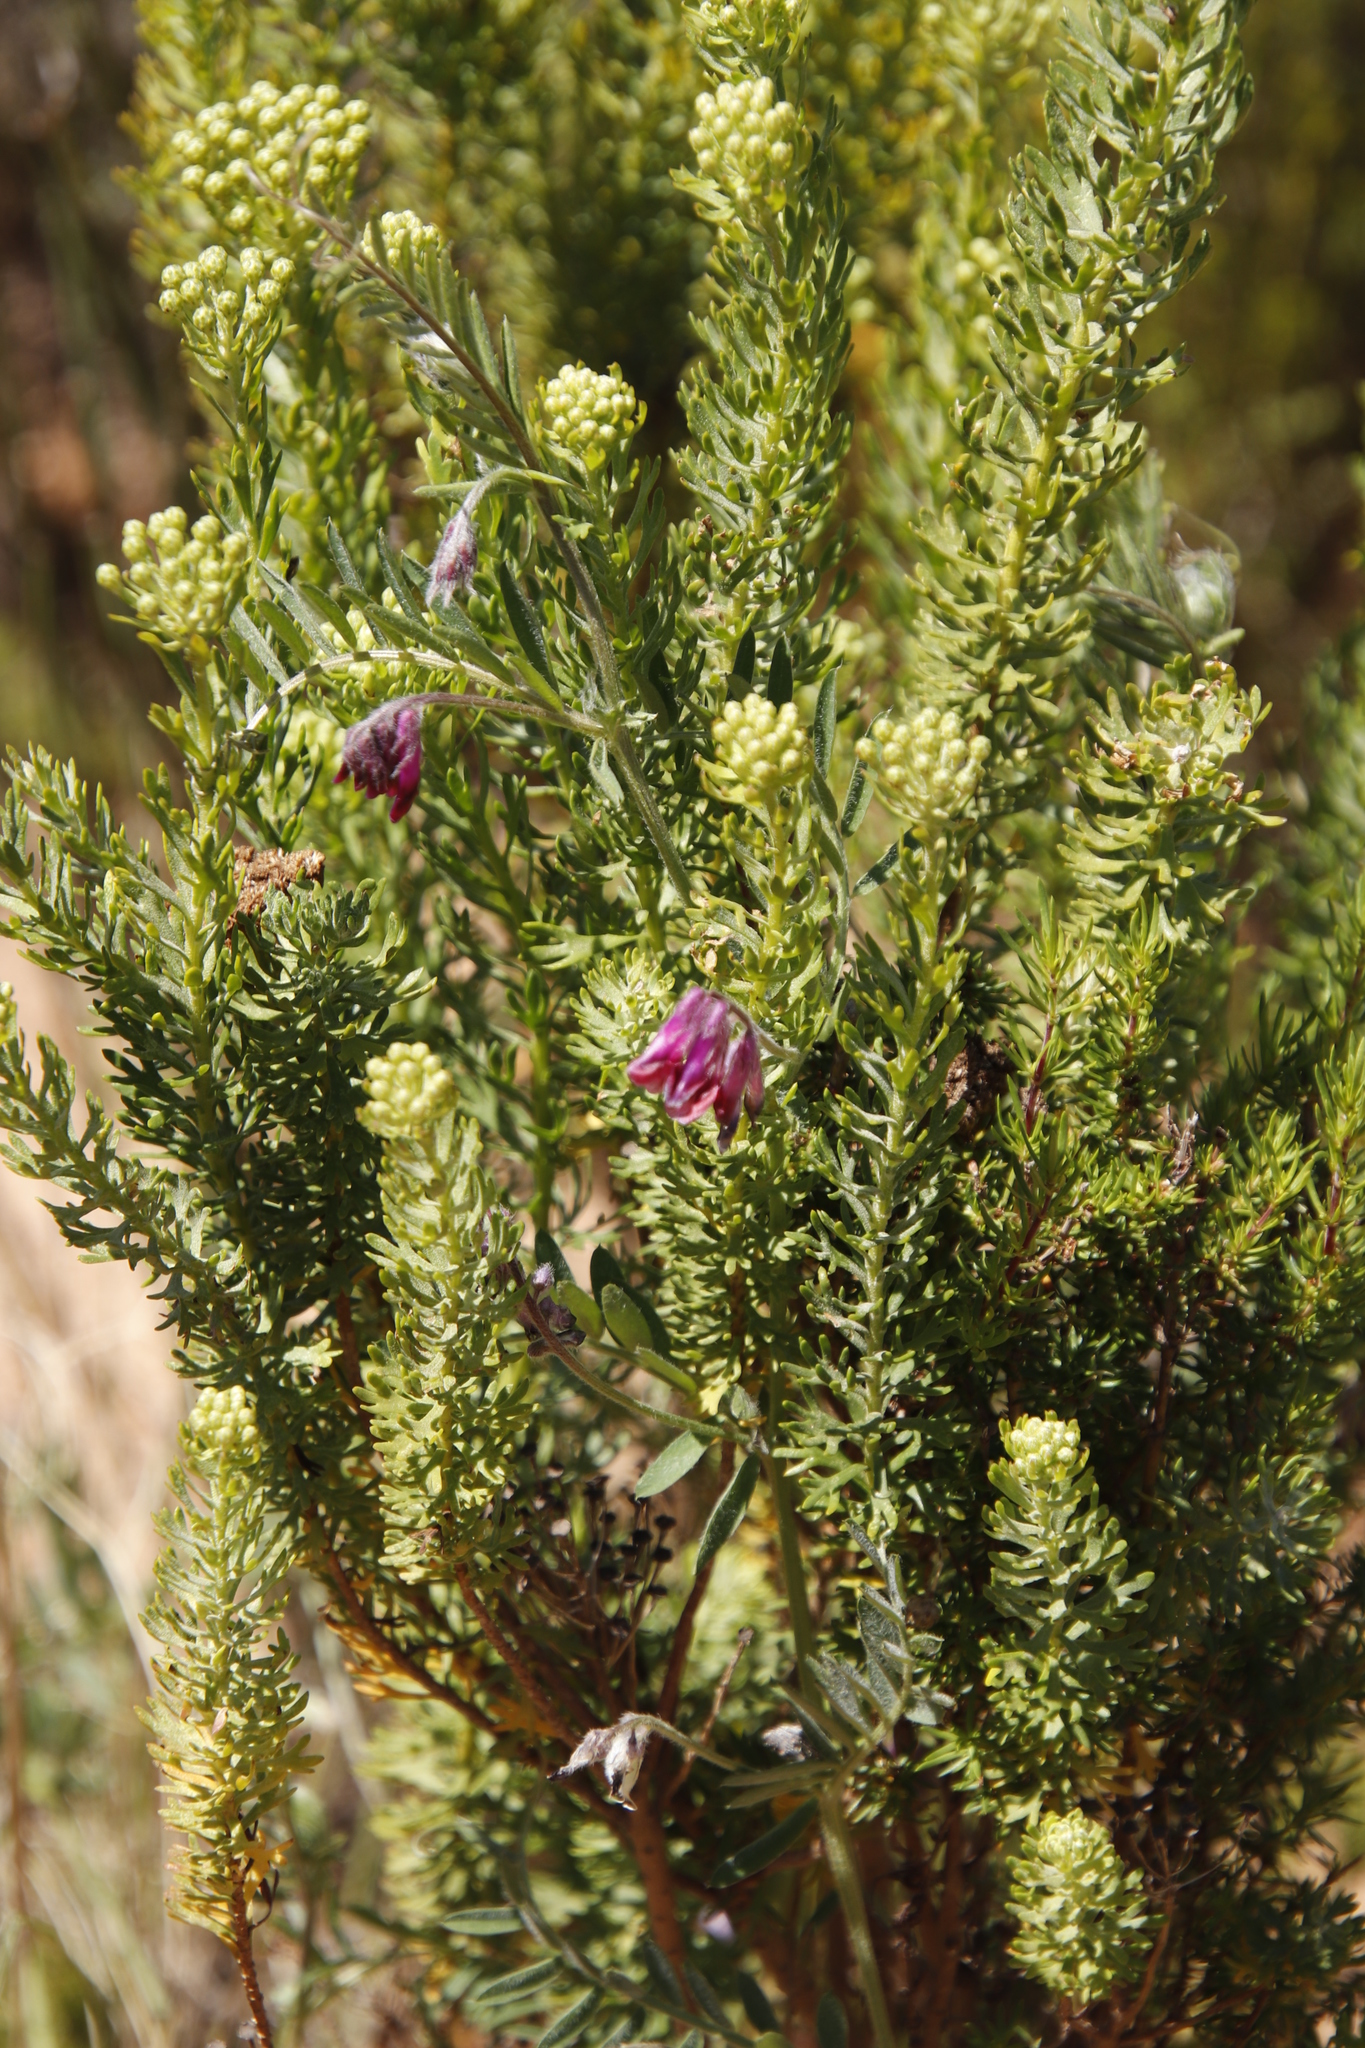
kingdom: Plantae
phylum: Tracheophyta
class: Magnoliopsida
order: Fabales
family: Fabaceae
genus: Vicia
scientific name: Vicia benghalensis
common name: Purple vetch
